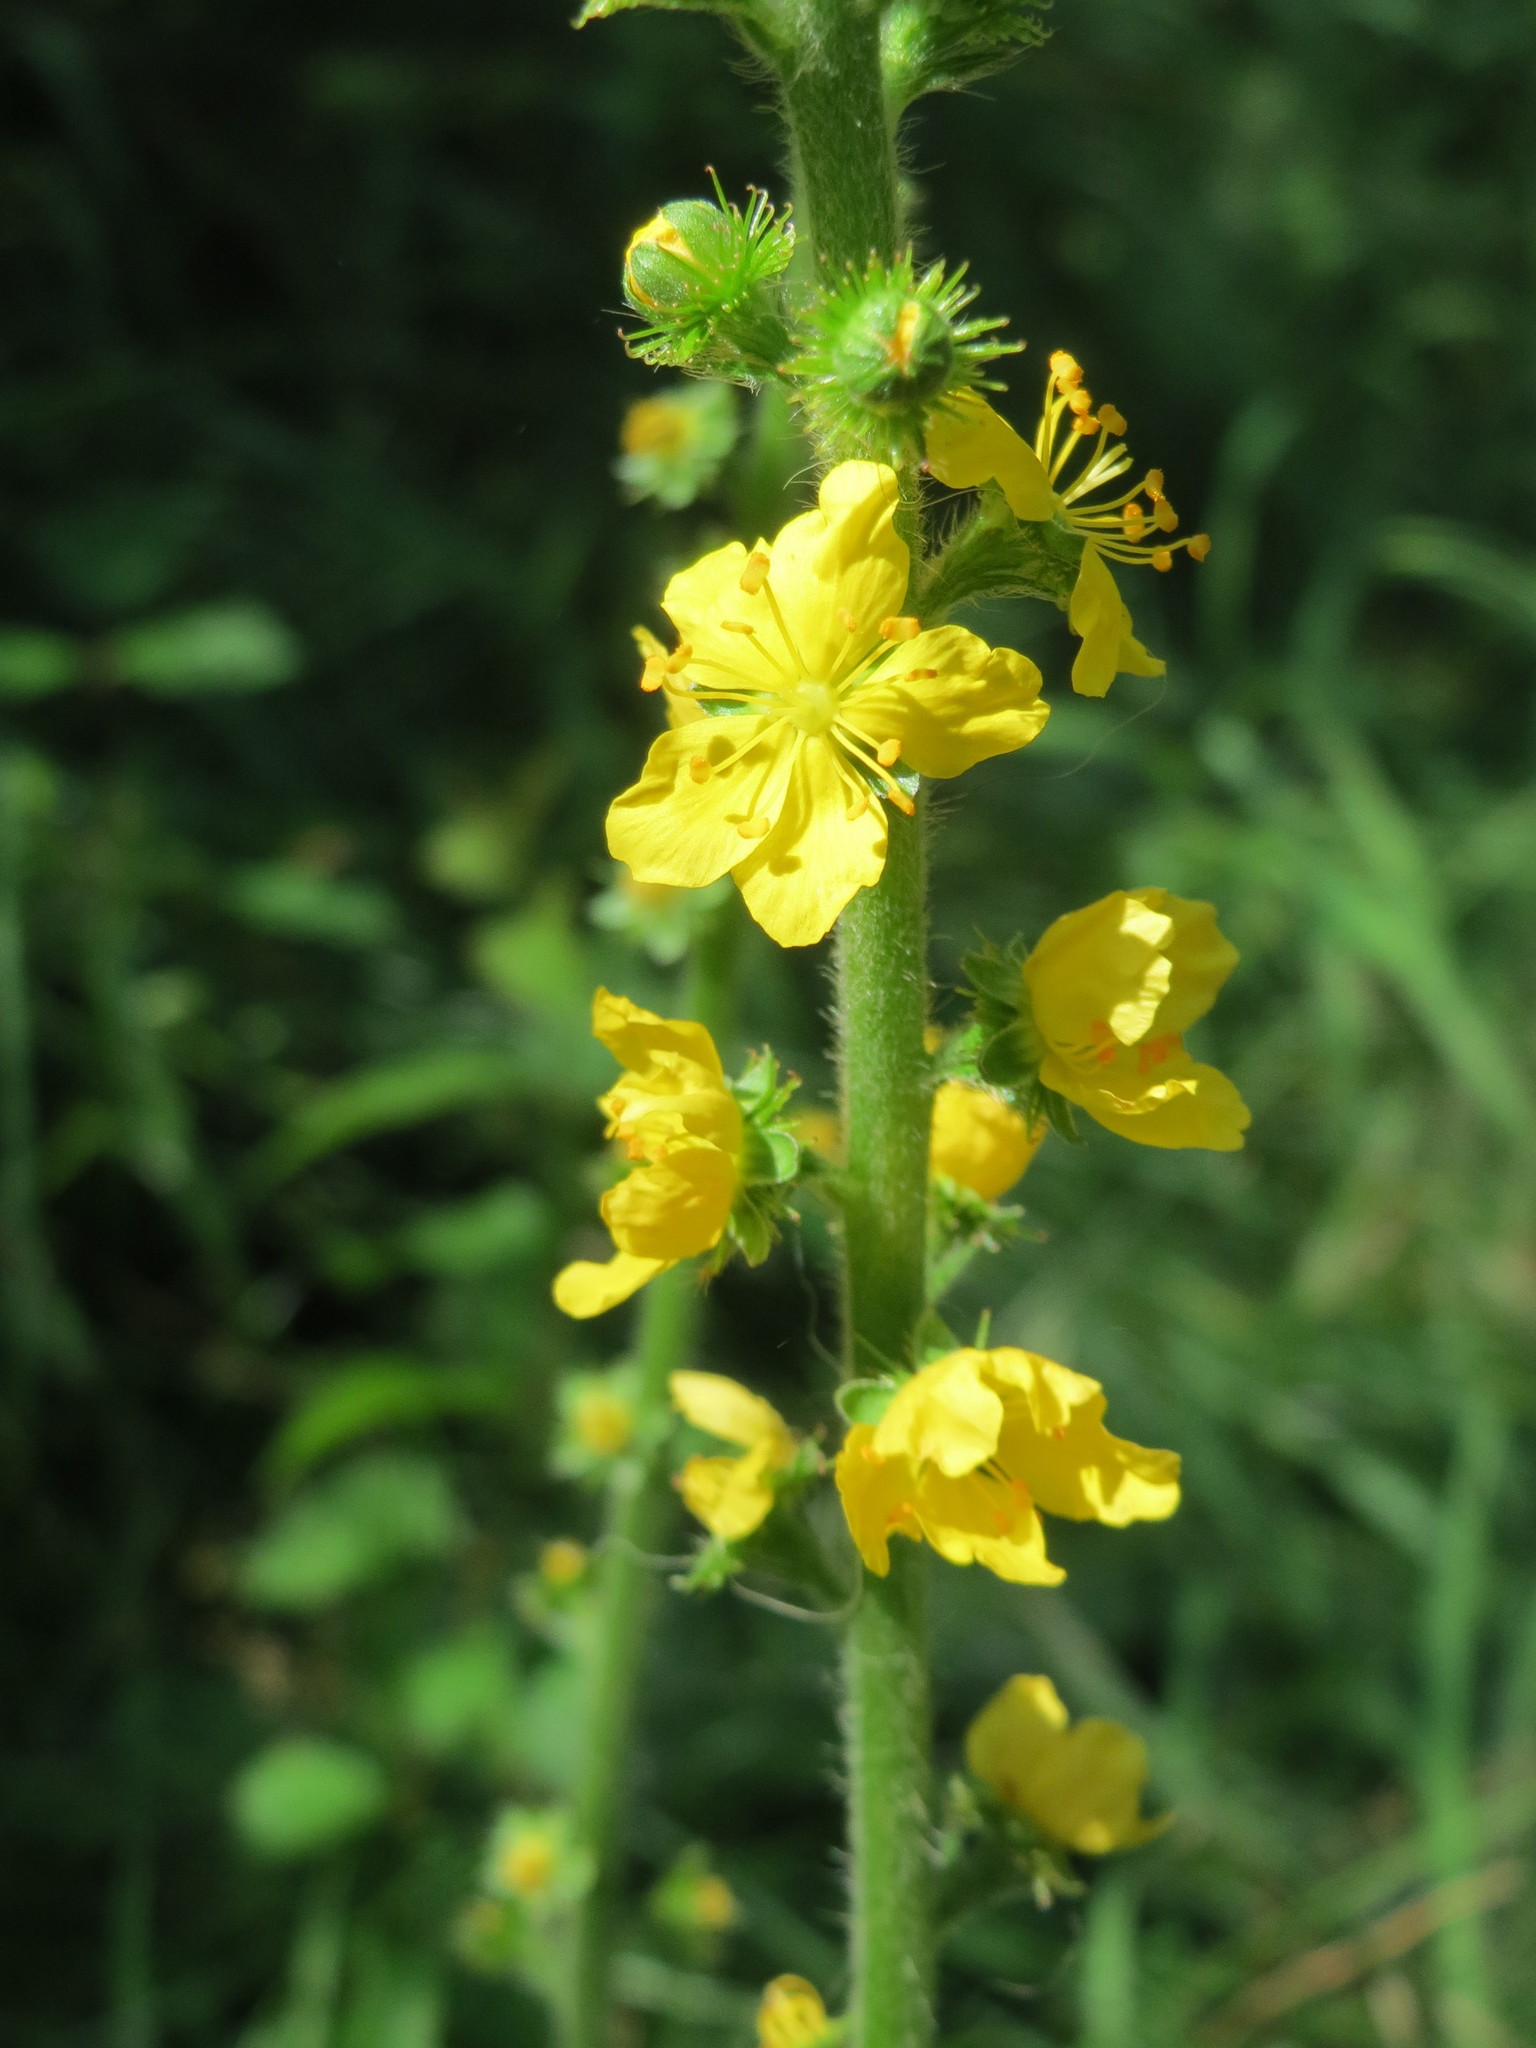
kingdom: Plantae
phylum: Tracheophyta
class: Magnoliopsida
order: Rosales
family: Rosaceae
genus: Agrimonia
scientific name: Agrimonia eupatoria
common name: Agrimony
